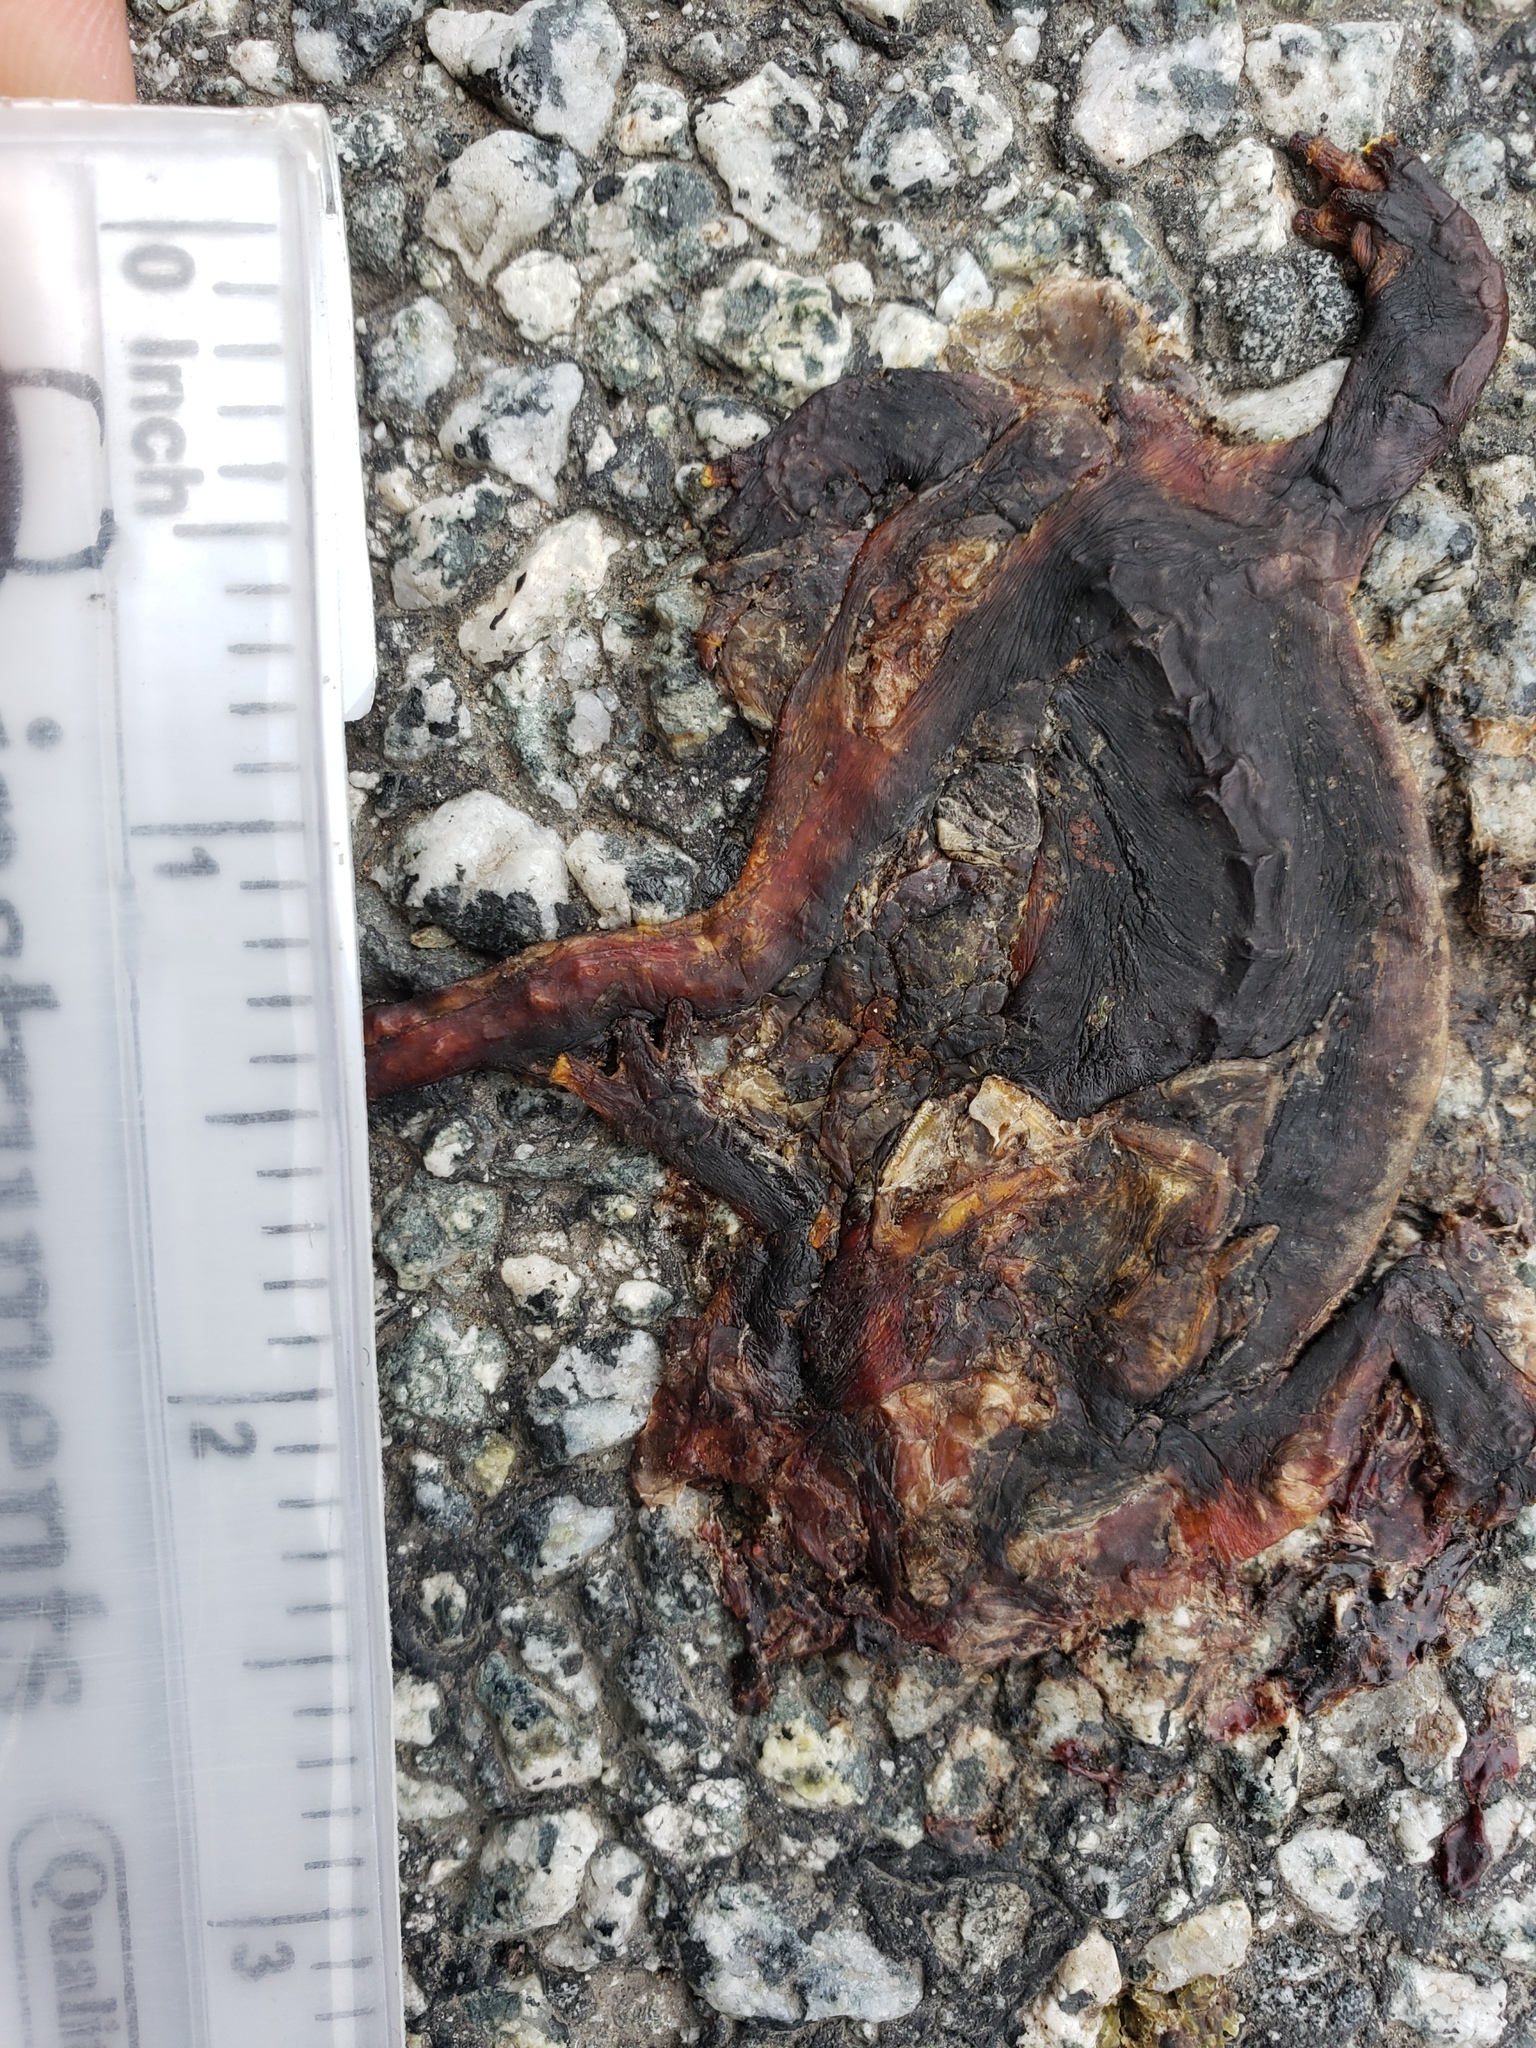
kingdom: Animalia
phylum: Chordata
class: Amphibia
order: Caudata
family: Salamandridae
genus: Taricha
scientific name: Taricha
